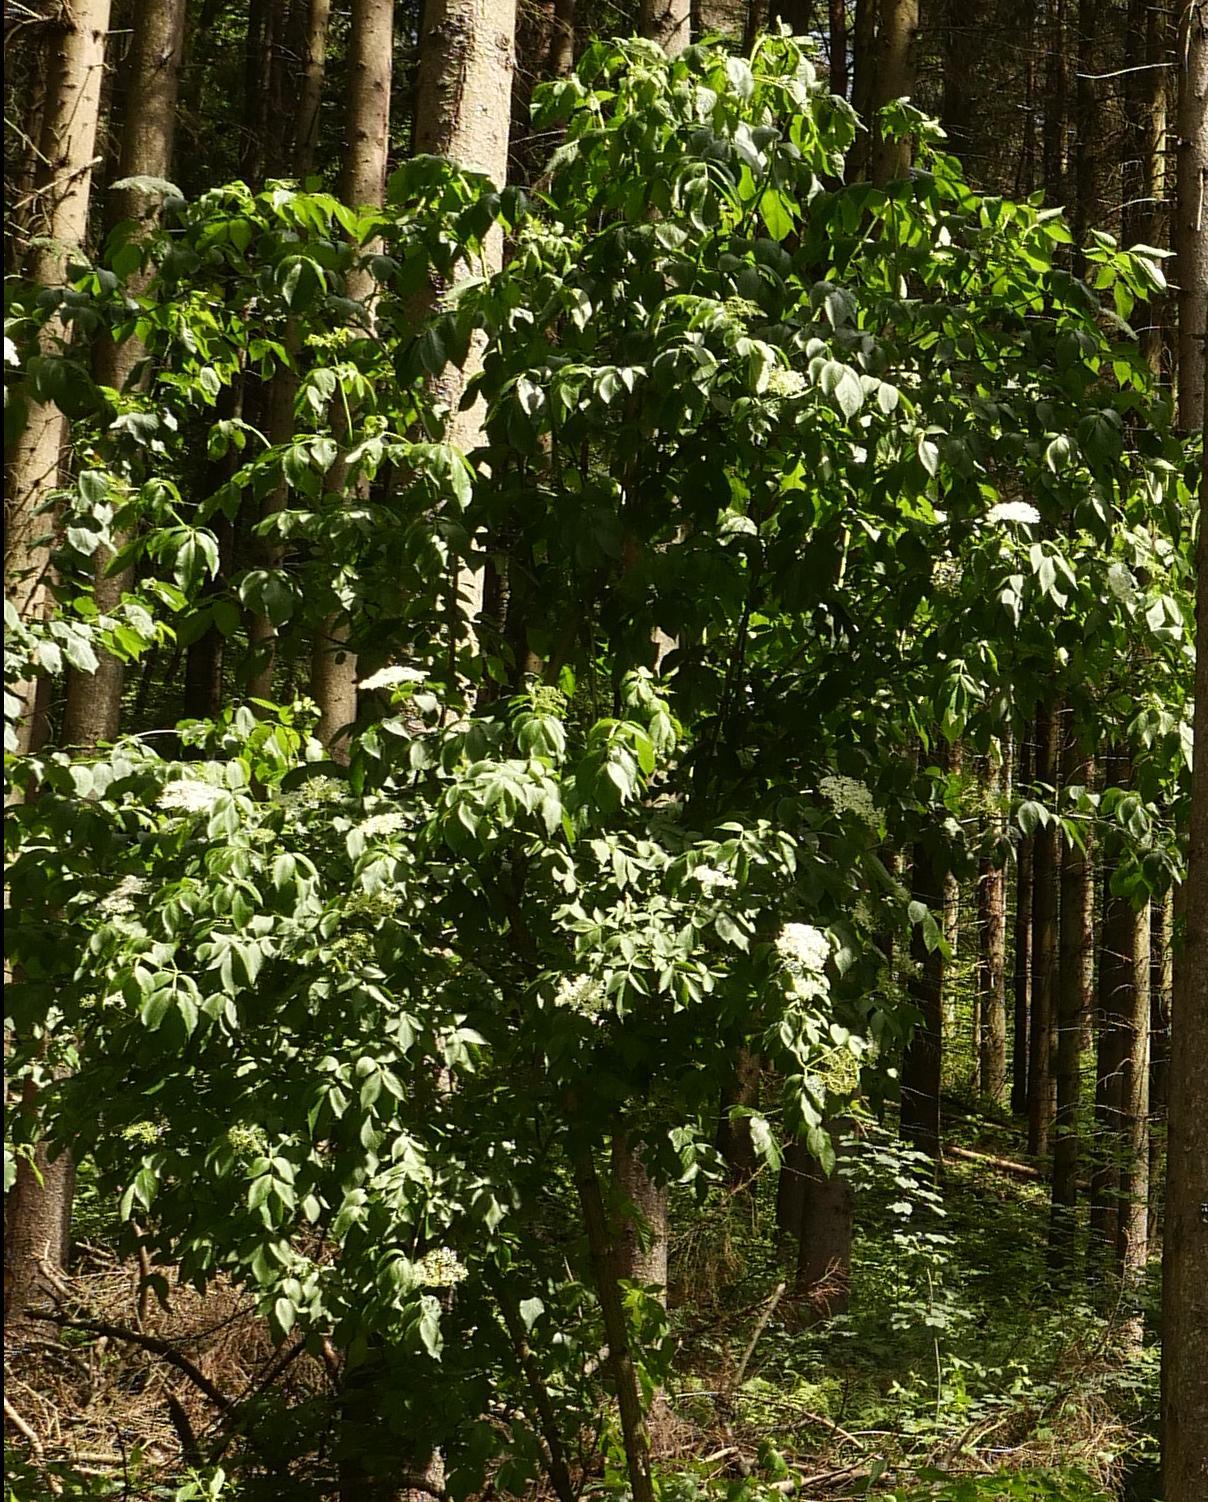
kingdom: Plantae
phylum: Tracheophyta
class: Magnoliopsida
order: Dipsacales
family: Viburnaceae
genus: Sambucus
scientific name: Sambucus nigra
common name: Elder
